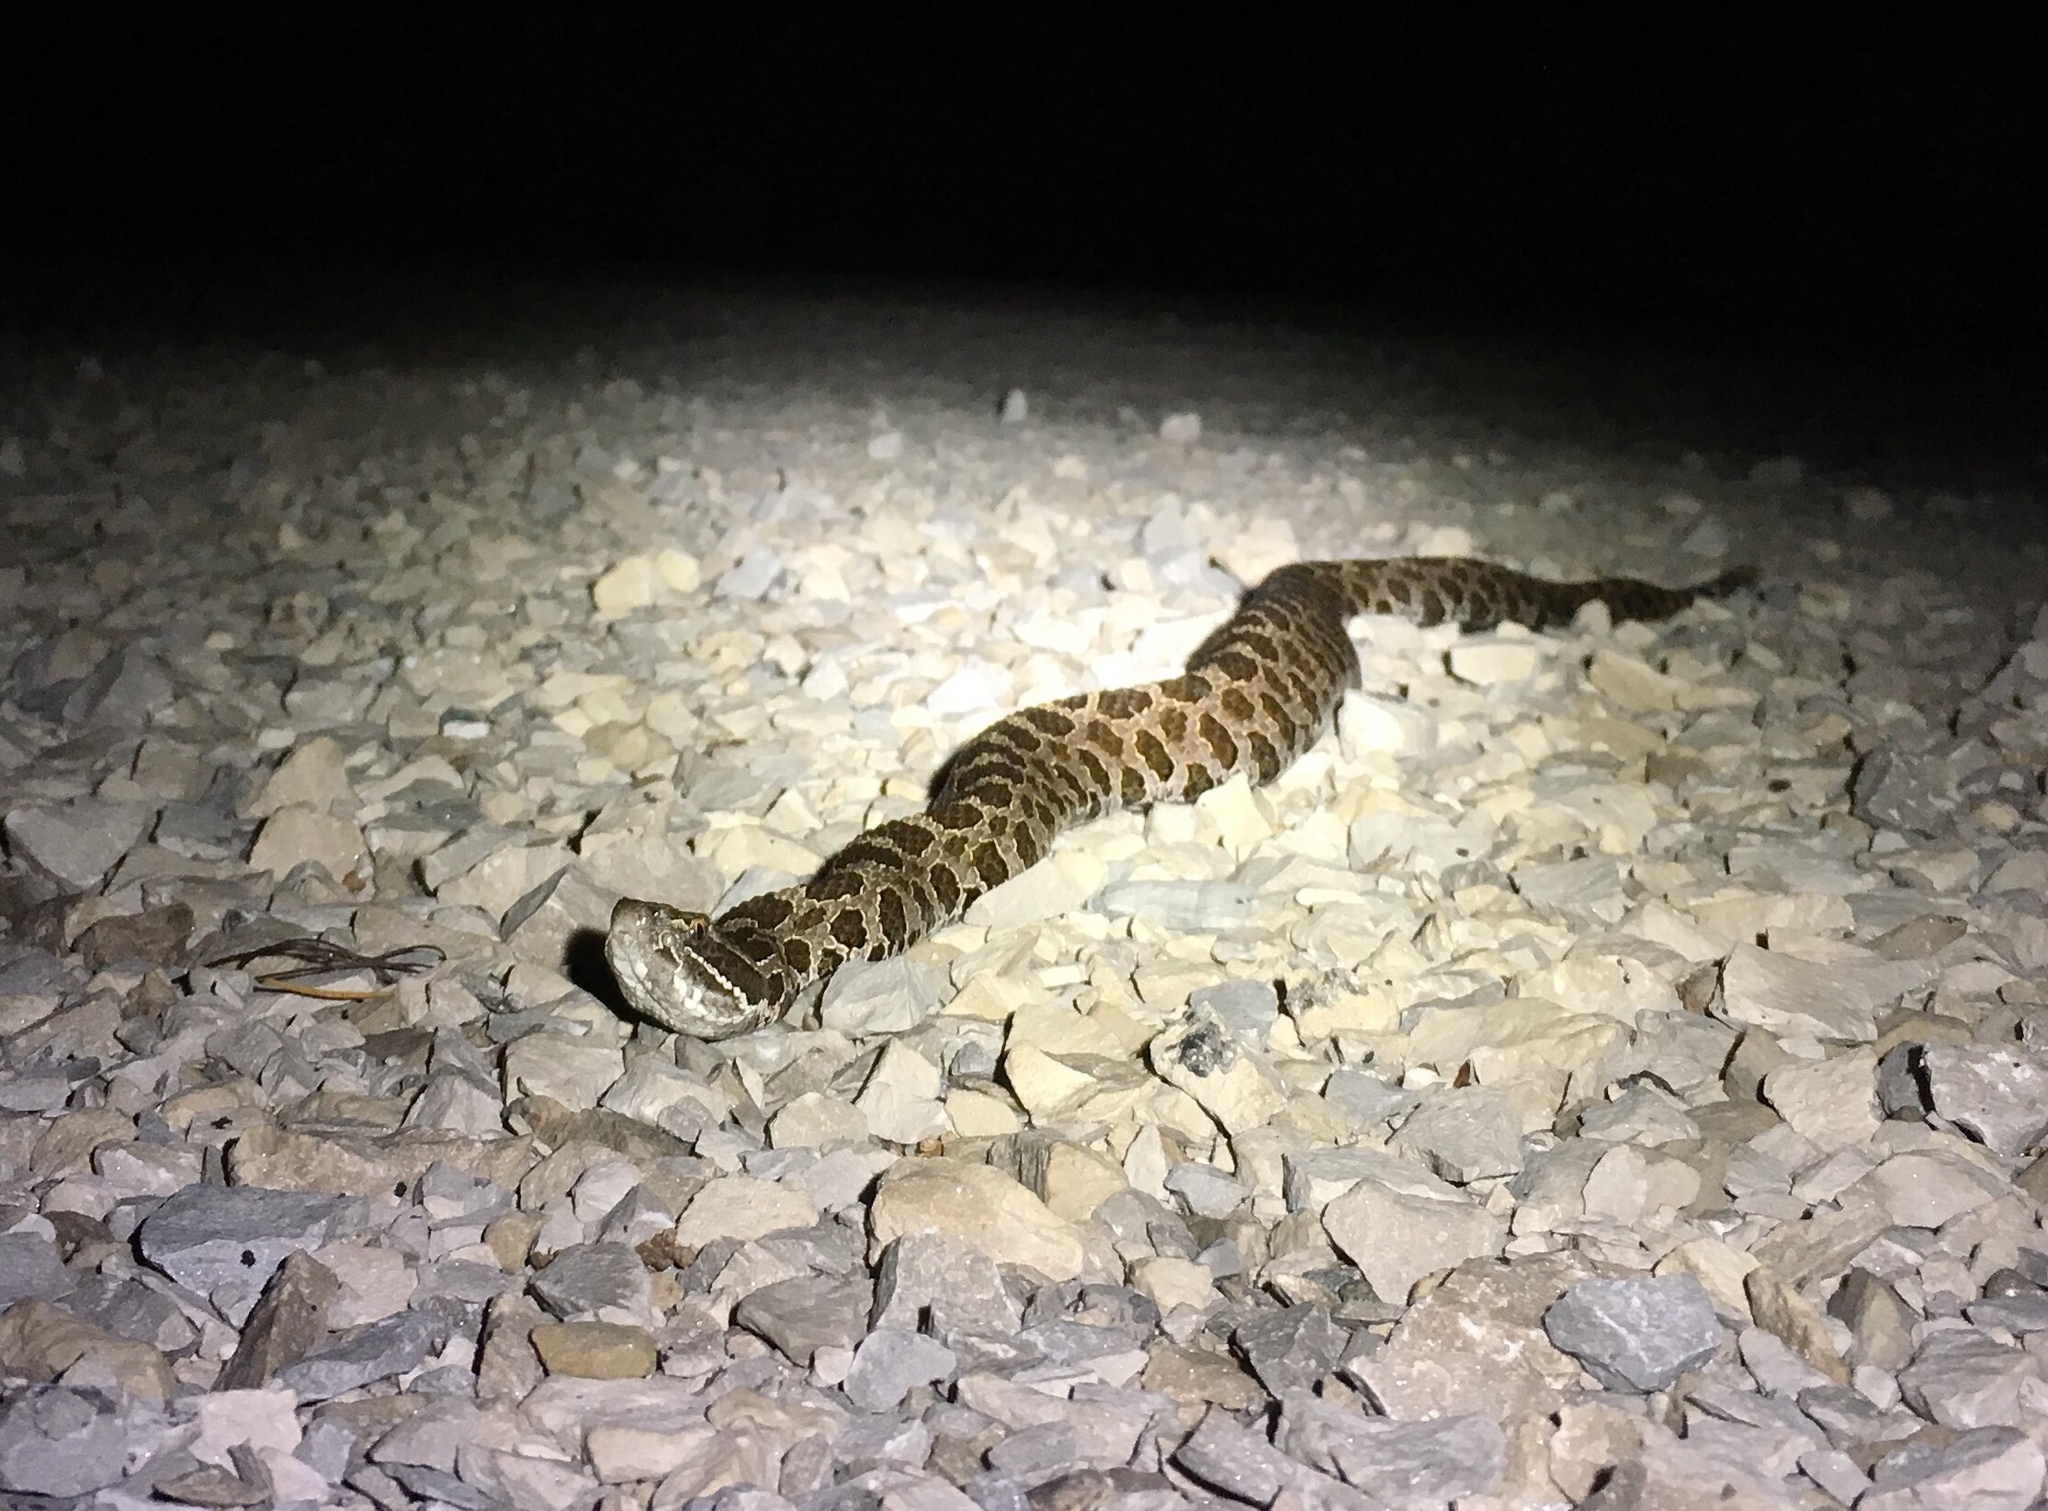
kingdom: Animalia
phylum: Chordata
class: Squamata
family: Viperidae
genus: Sistrurus
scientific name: Sistrurus catenatus
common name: Massasauga
